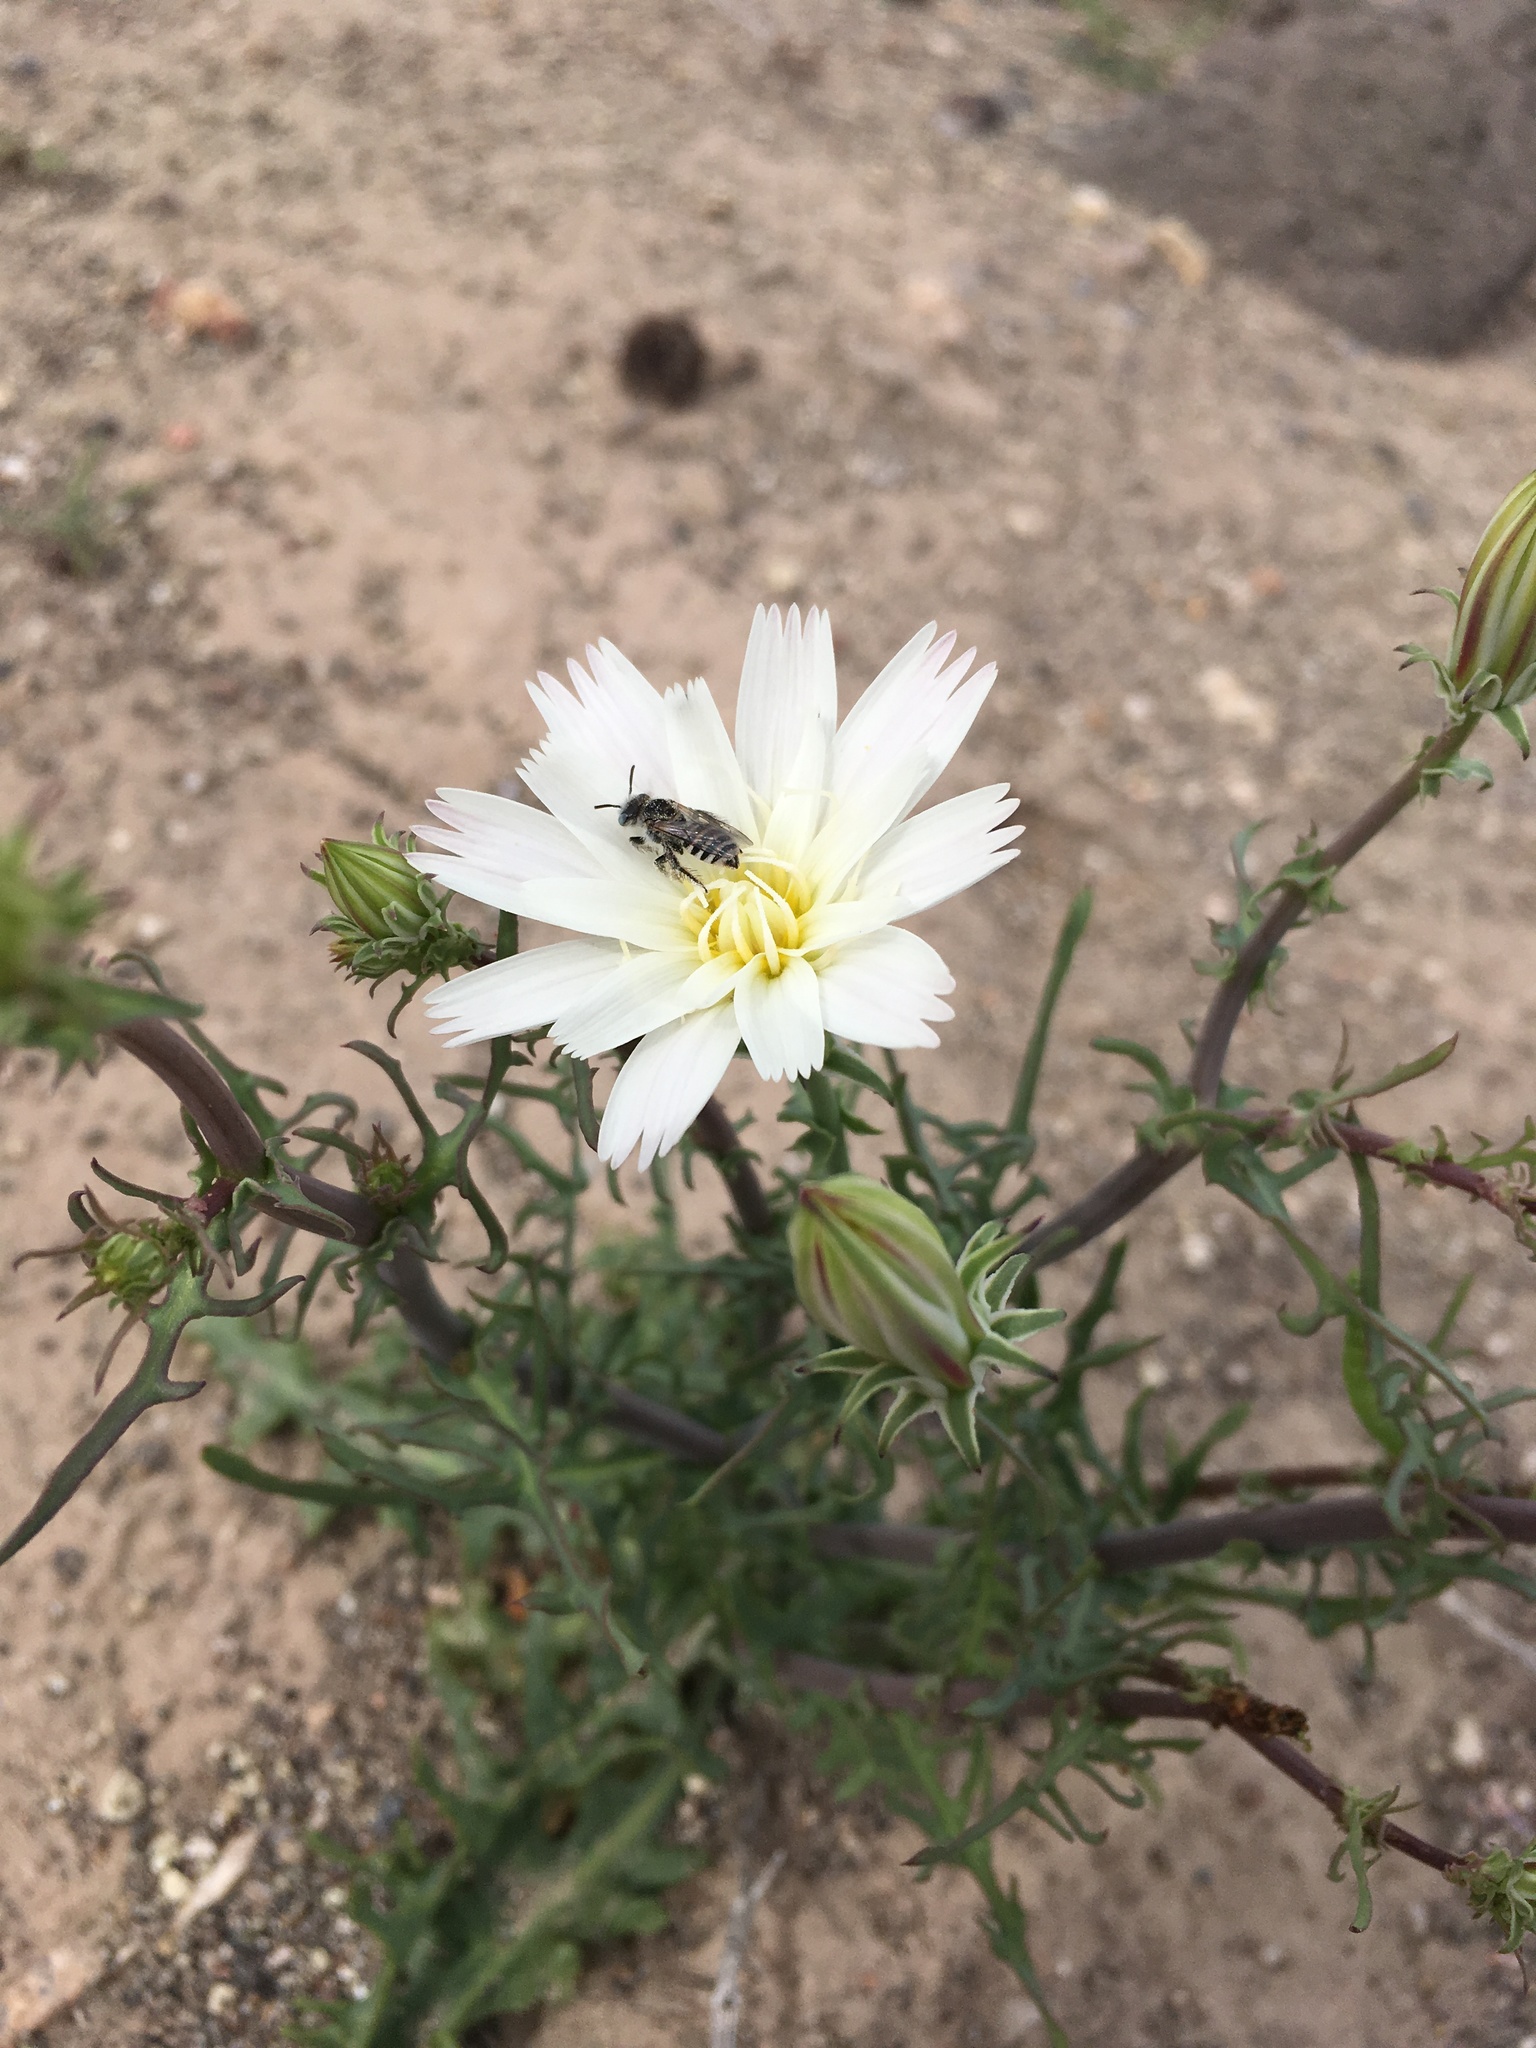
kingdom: Plantae
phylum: Tracheophyta
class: Magnoliopsida
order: Asterales
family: Asteraceae
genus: Rafinesquia
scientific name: Rafinesquia neomexicana
